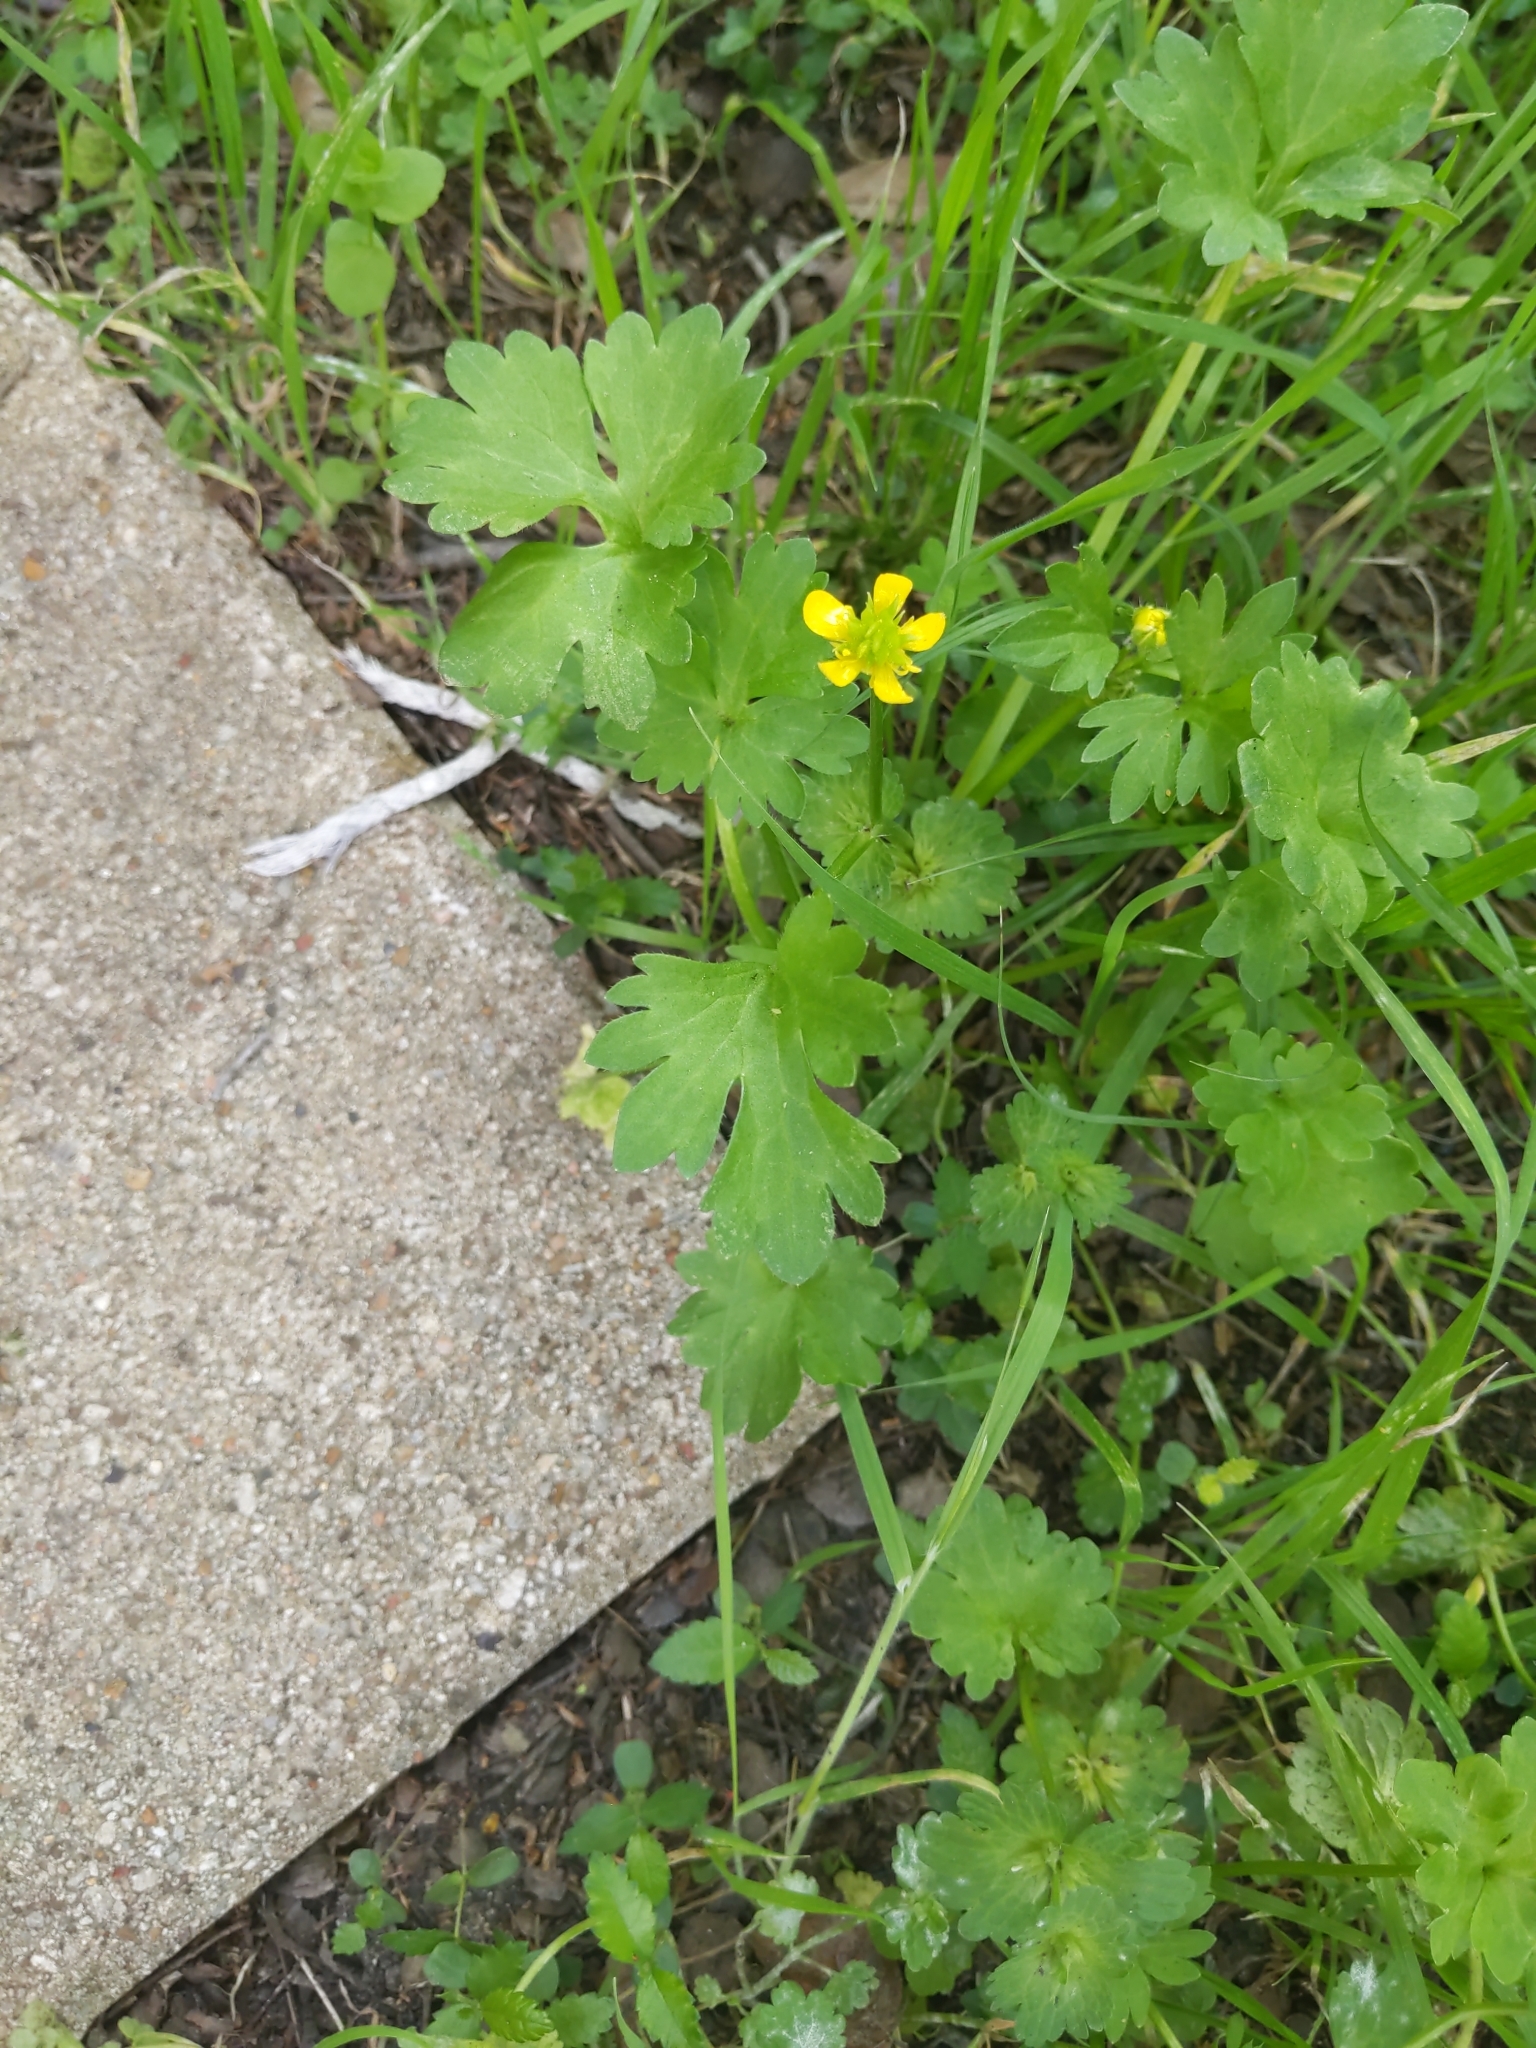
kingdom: Plantae
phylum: Tracheophyta
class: Magnoliopsida
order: Ranunculales
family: Ranunculaceae
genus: Ranunculus
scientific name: Ranunculus muricatus
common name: Rough-fruited buttercup
